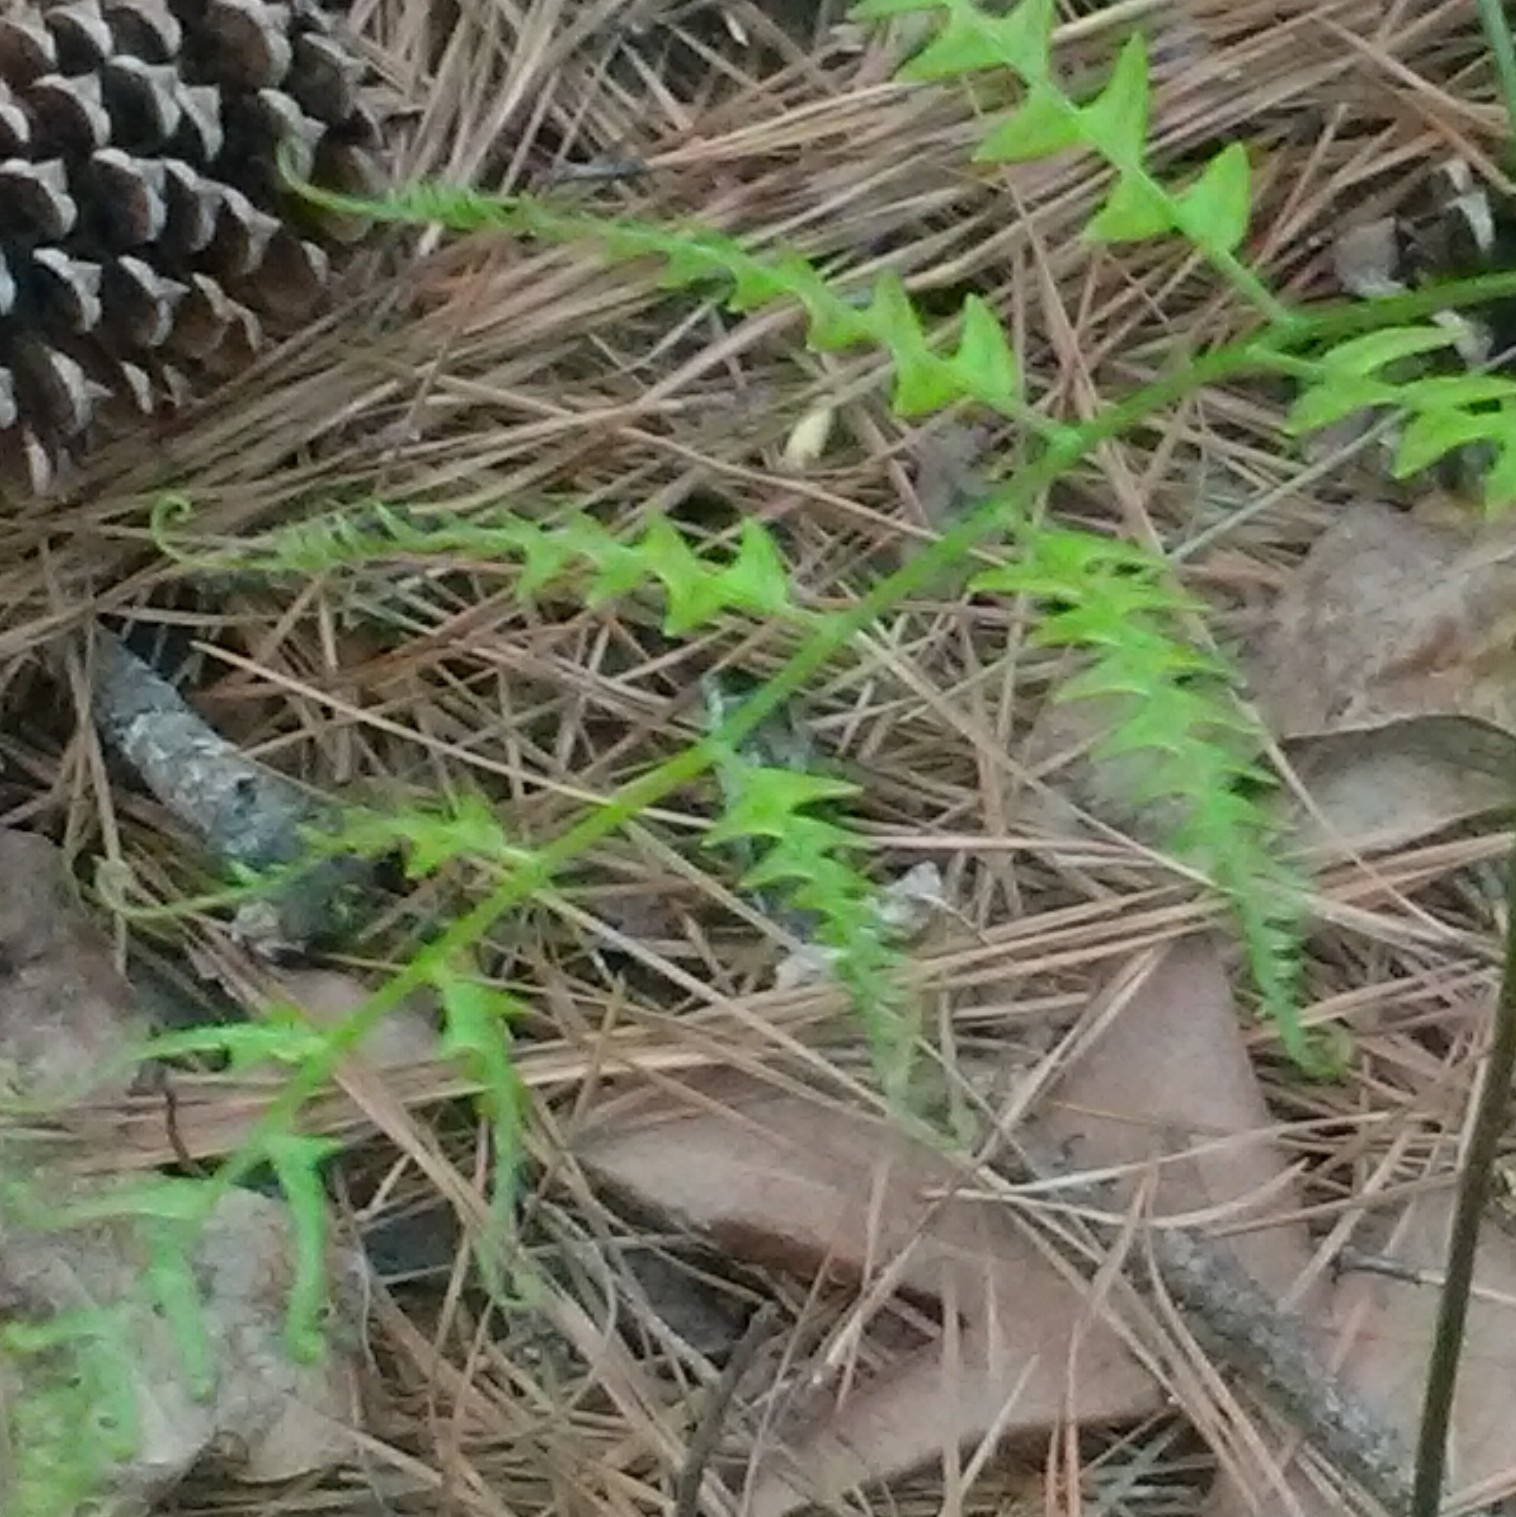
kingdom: Plantae
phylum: Tracheophyta
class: Polypodiopsida
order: Polypodiales
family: Dennstaedtiaceae
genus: Pteridium
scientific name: Pteridium
